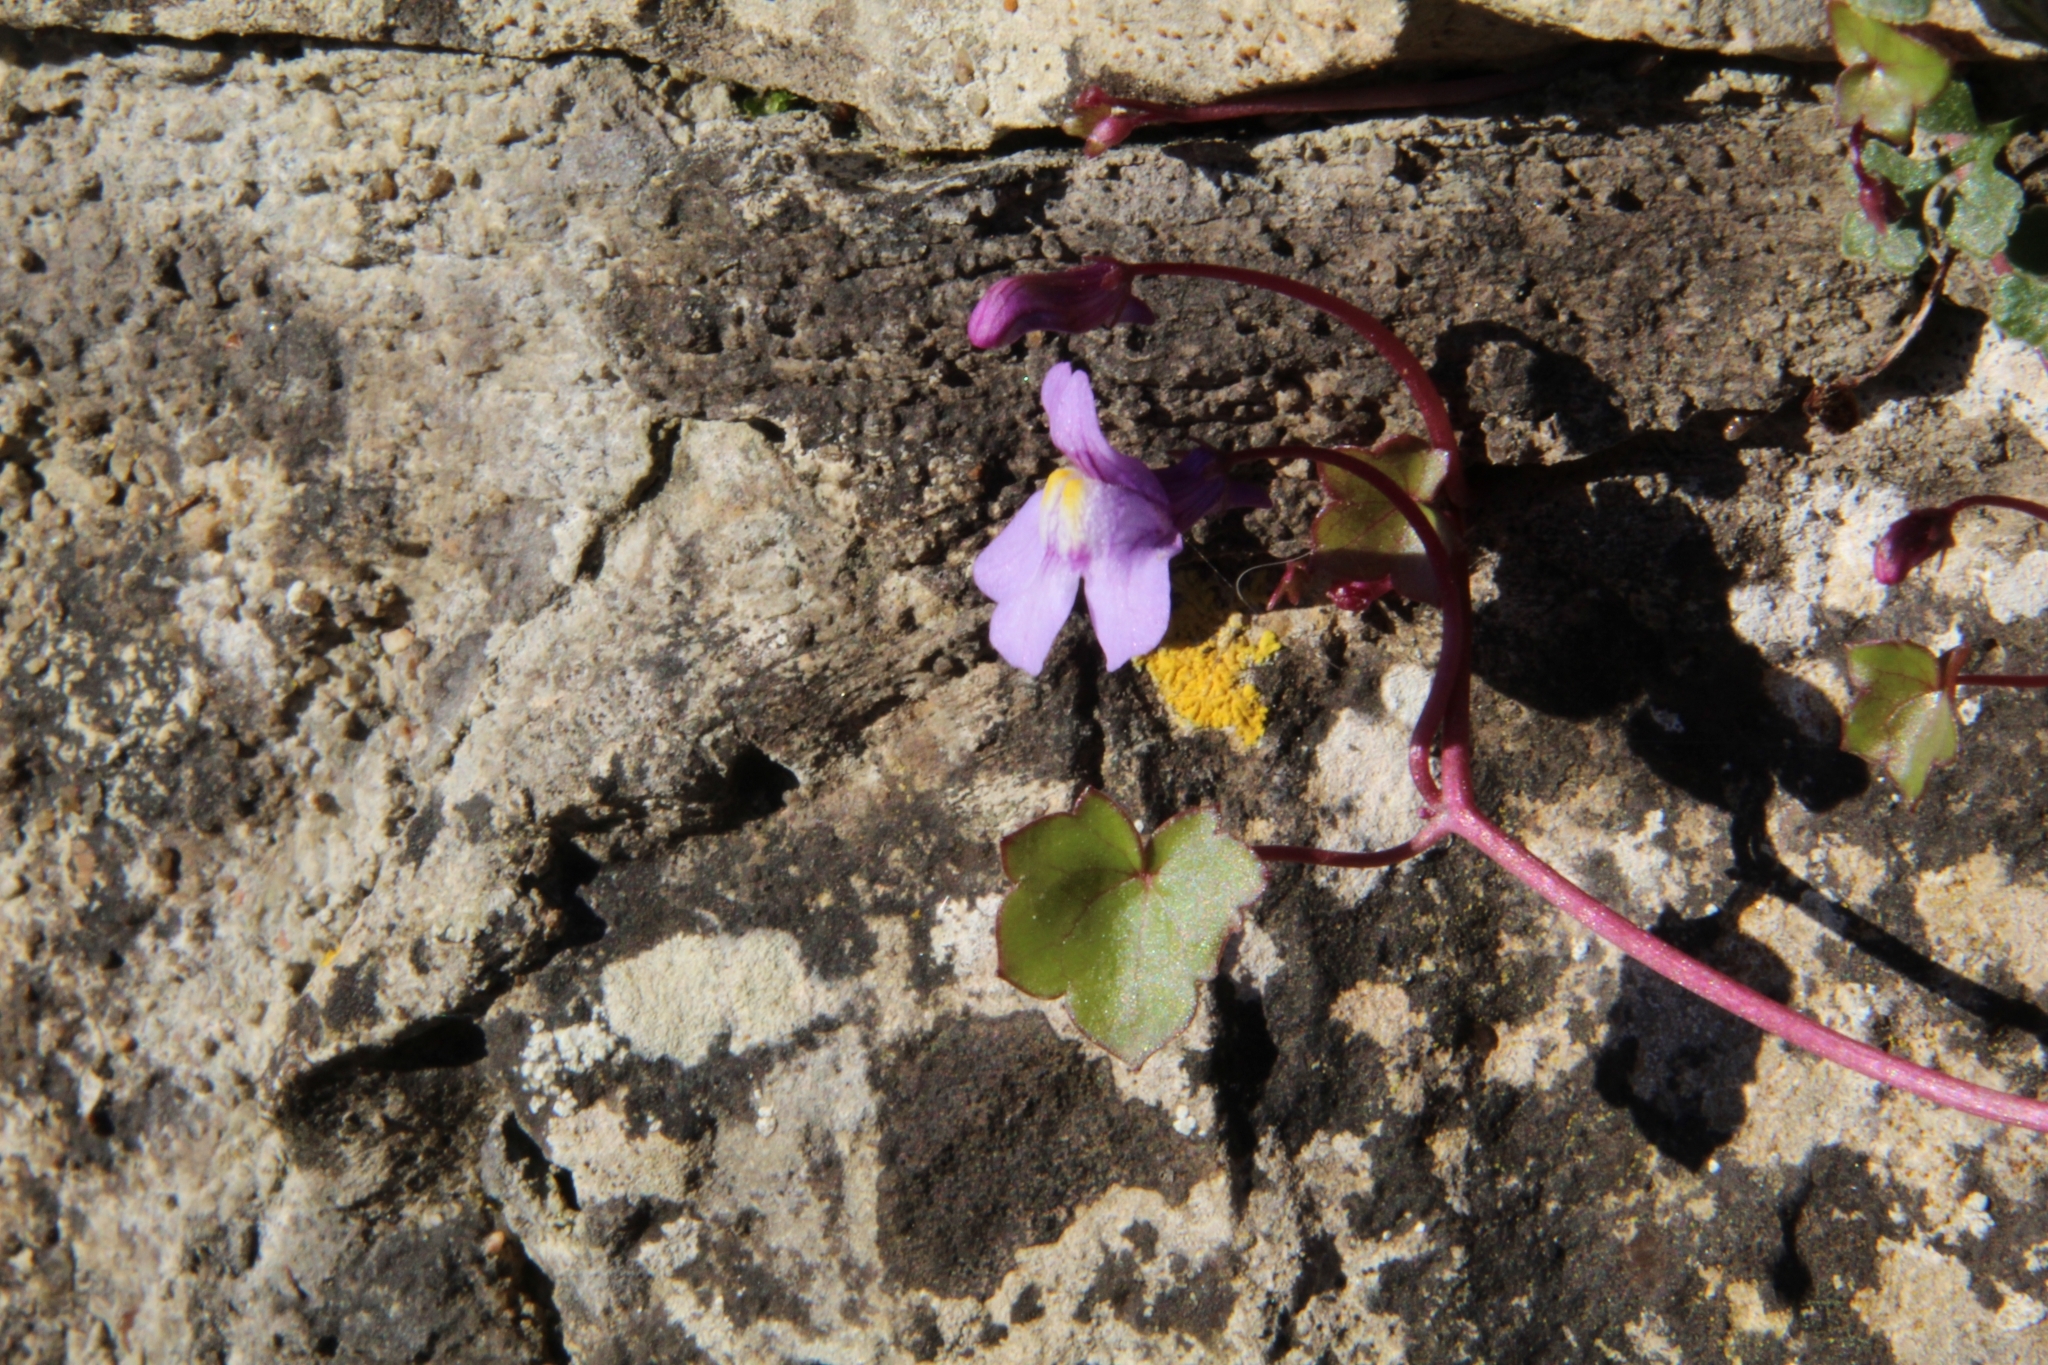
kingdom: Plantae
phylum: Tracheophyta
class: Magnoliopsida
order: Lamiales
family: Plantaginaceae
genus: Cymbalaria
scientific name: Cymbalaria muralis
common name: Ivy-leaved toadflax
